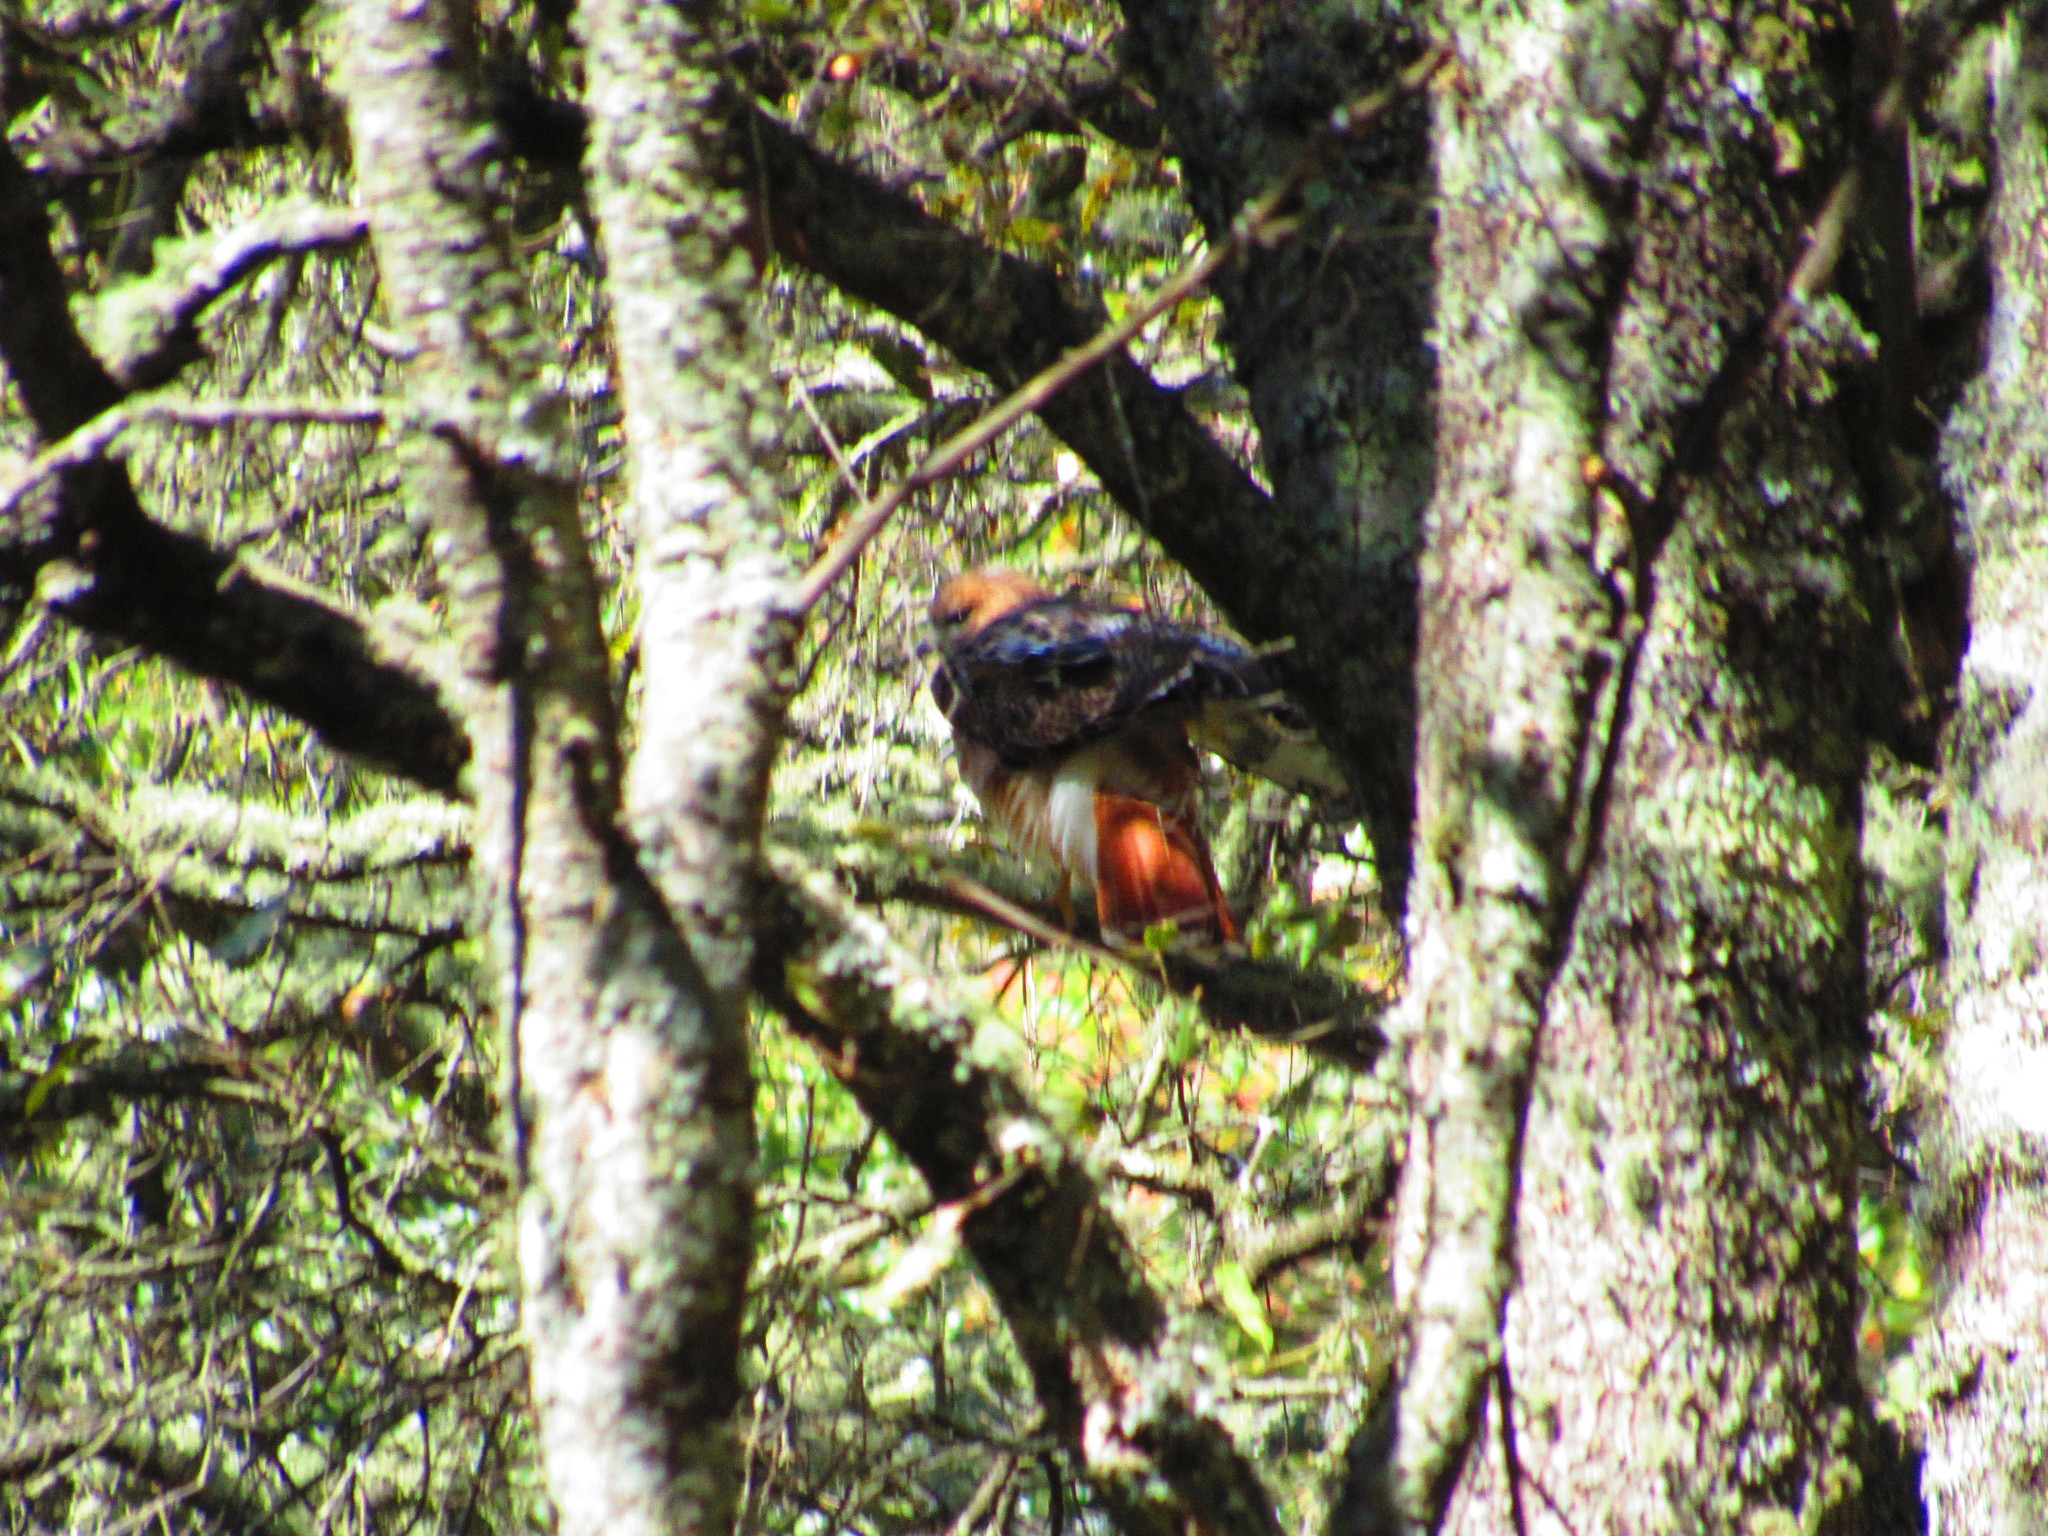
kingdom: Animalia
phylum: Chordata
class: Aves
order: Accipitriformes
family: Accipitridae
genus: Buteo
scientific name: Buteo jamaicensis
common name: Red-tailed hawk
